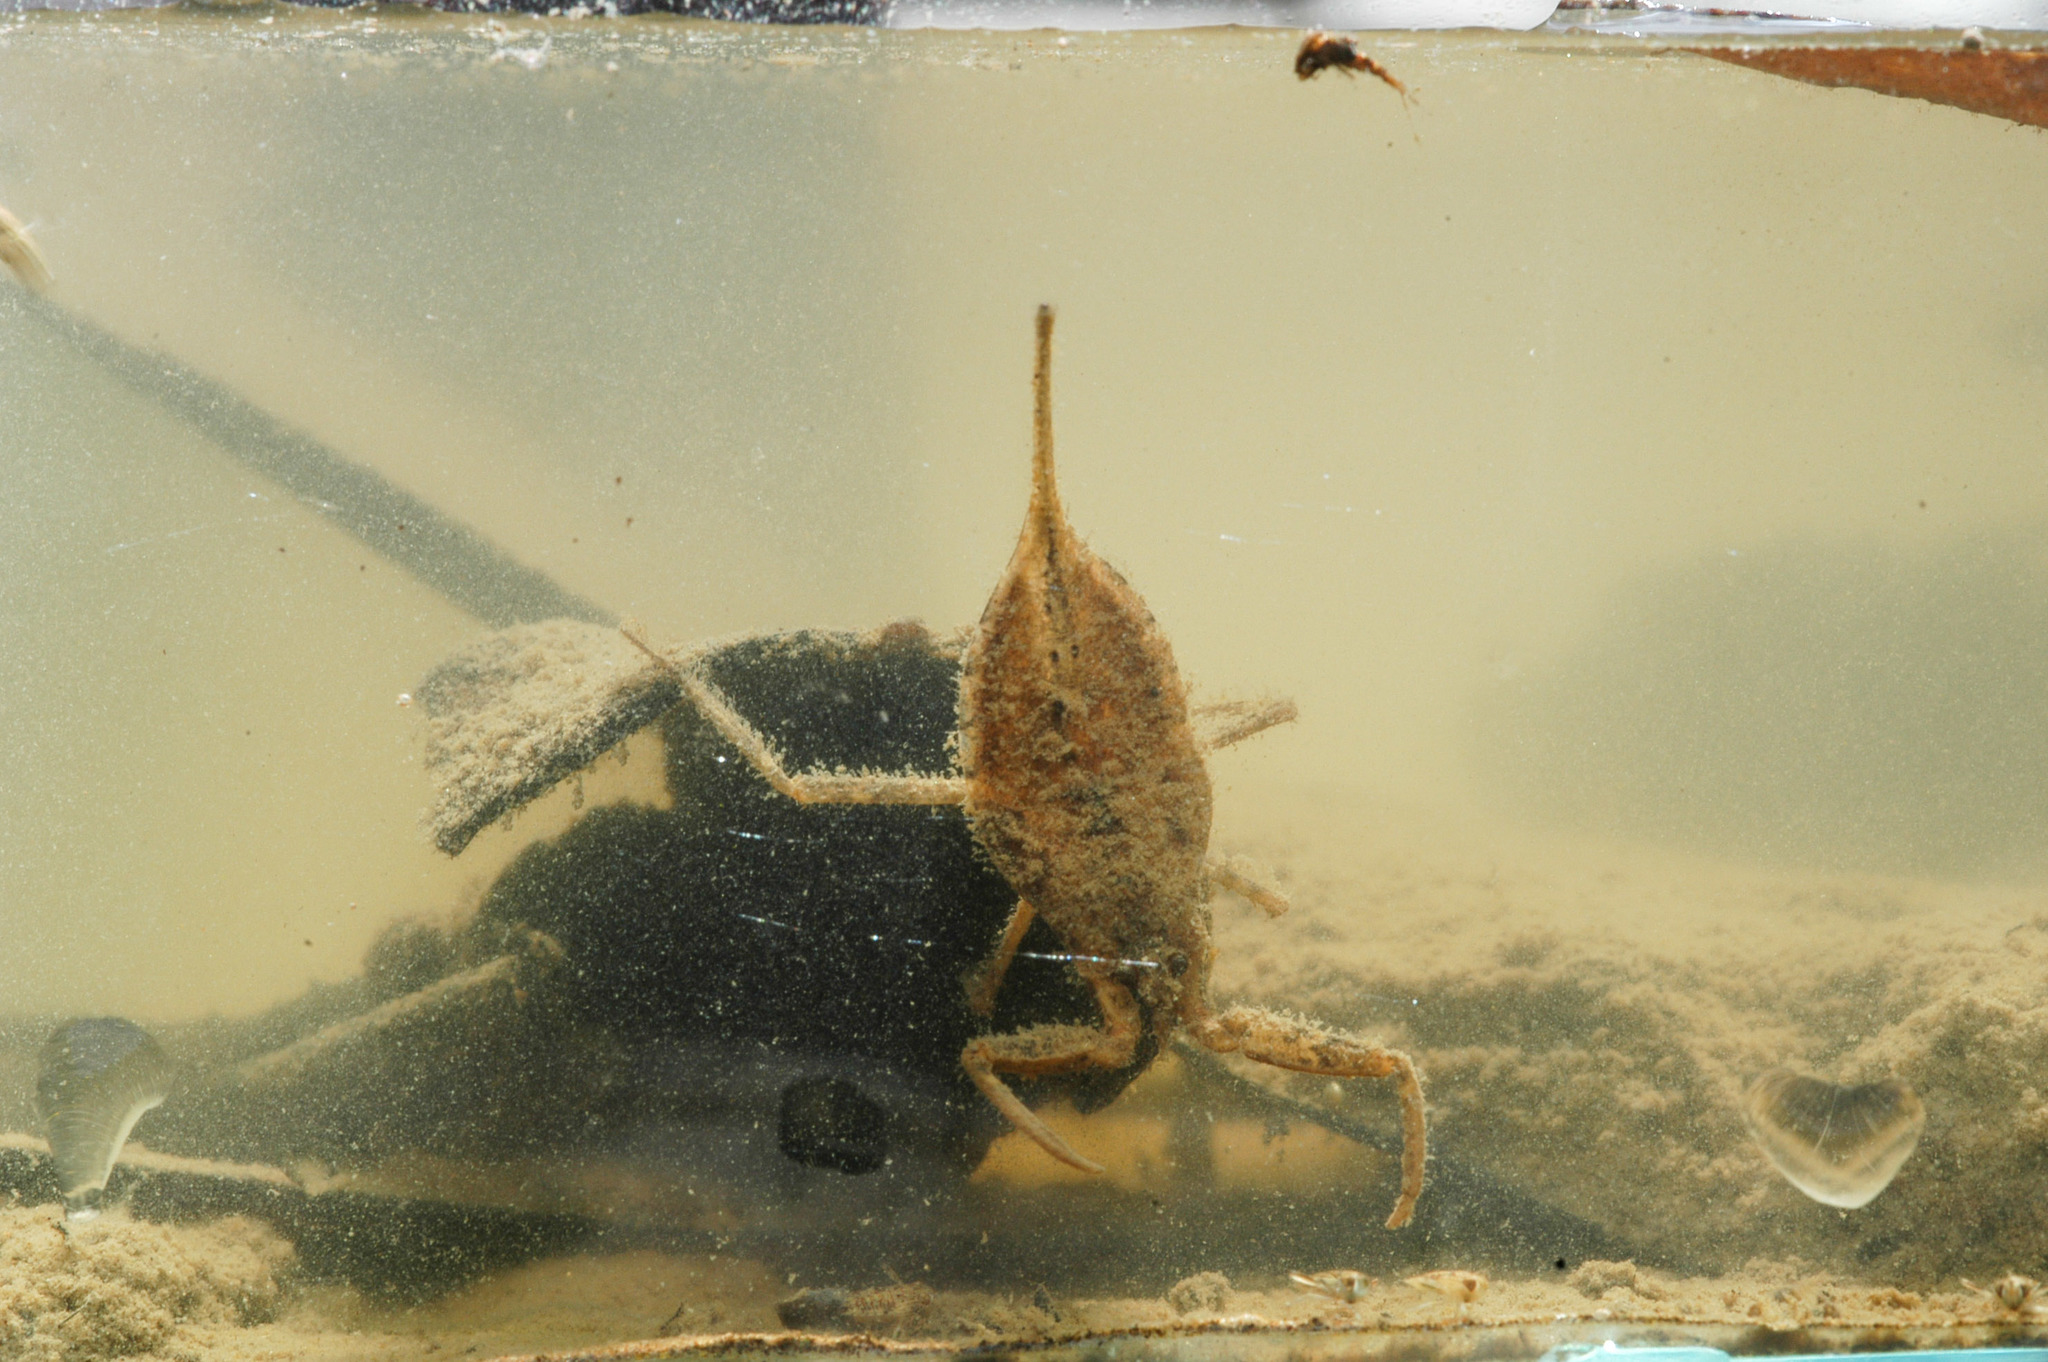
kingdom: Animalia
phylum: Arthropoda
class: Insecta
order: Hemiptera
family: Nepidae
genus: Laccotrephes
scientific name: Laccotrephes tristis
